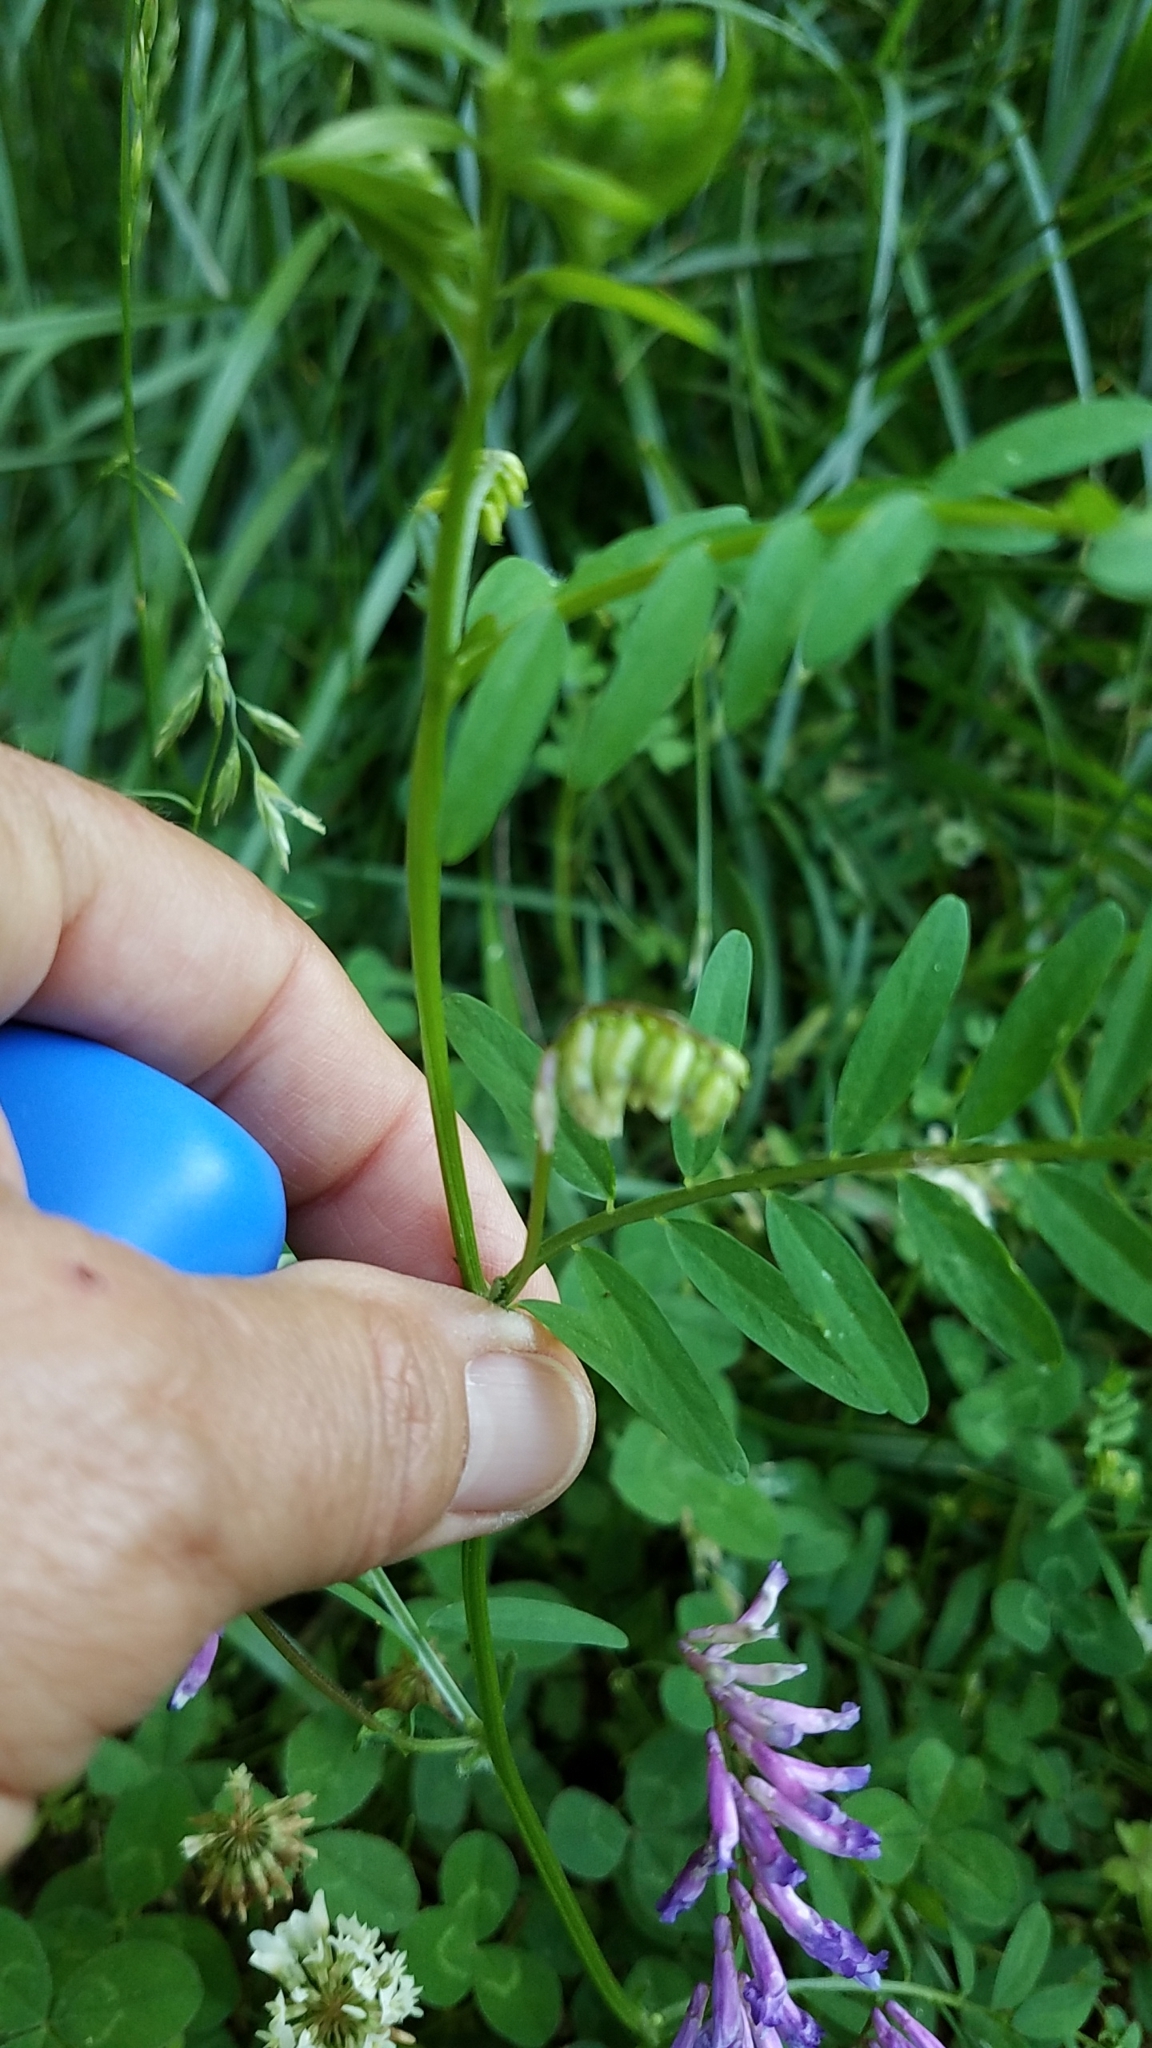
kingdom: Plantae
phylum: Tracheophyta
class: Magnoliopsida
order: Fabales
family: Fabaceae
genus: Vicia
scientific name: Vicia villosa
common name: Fodder vetch
